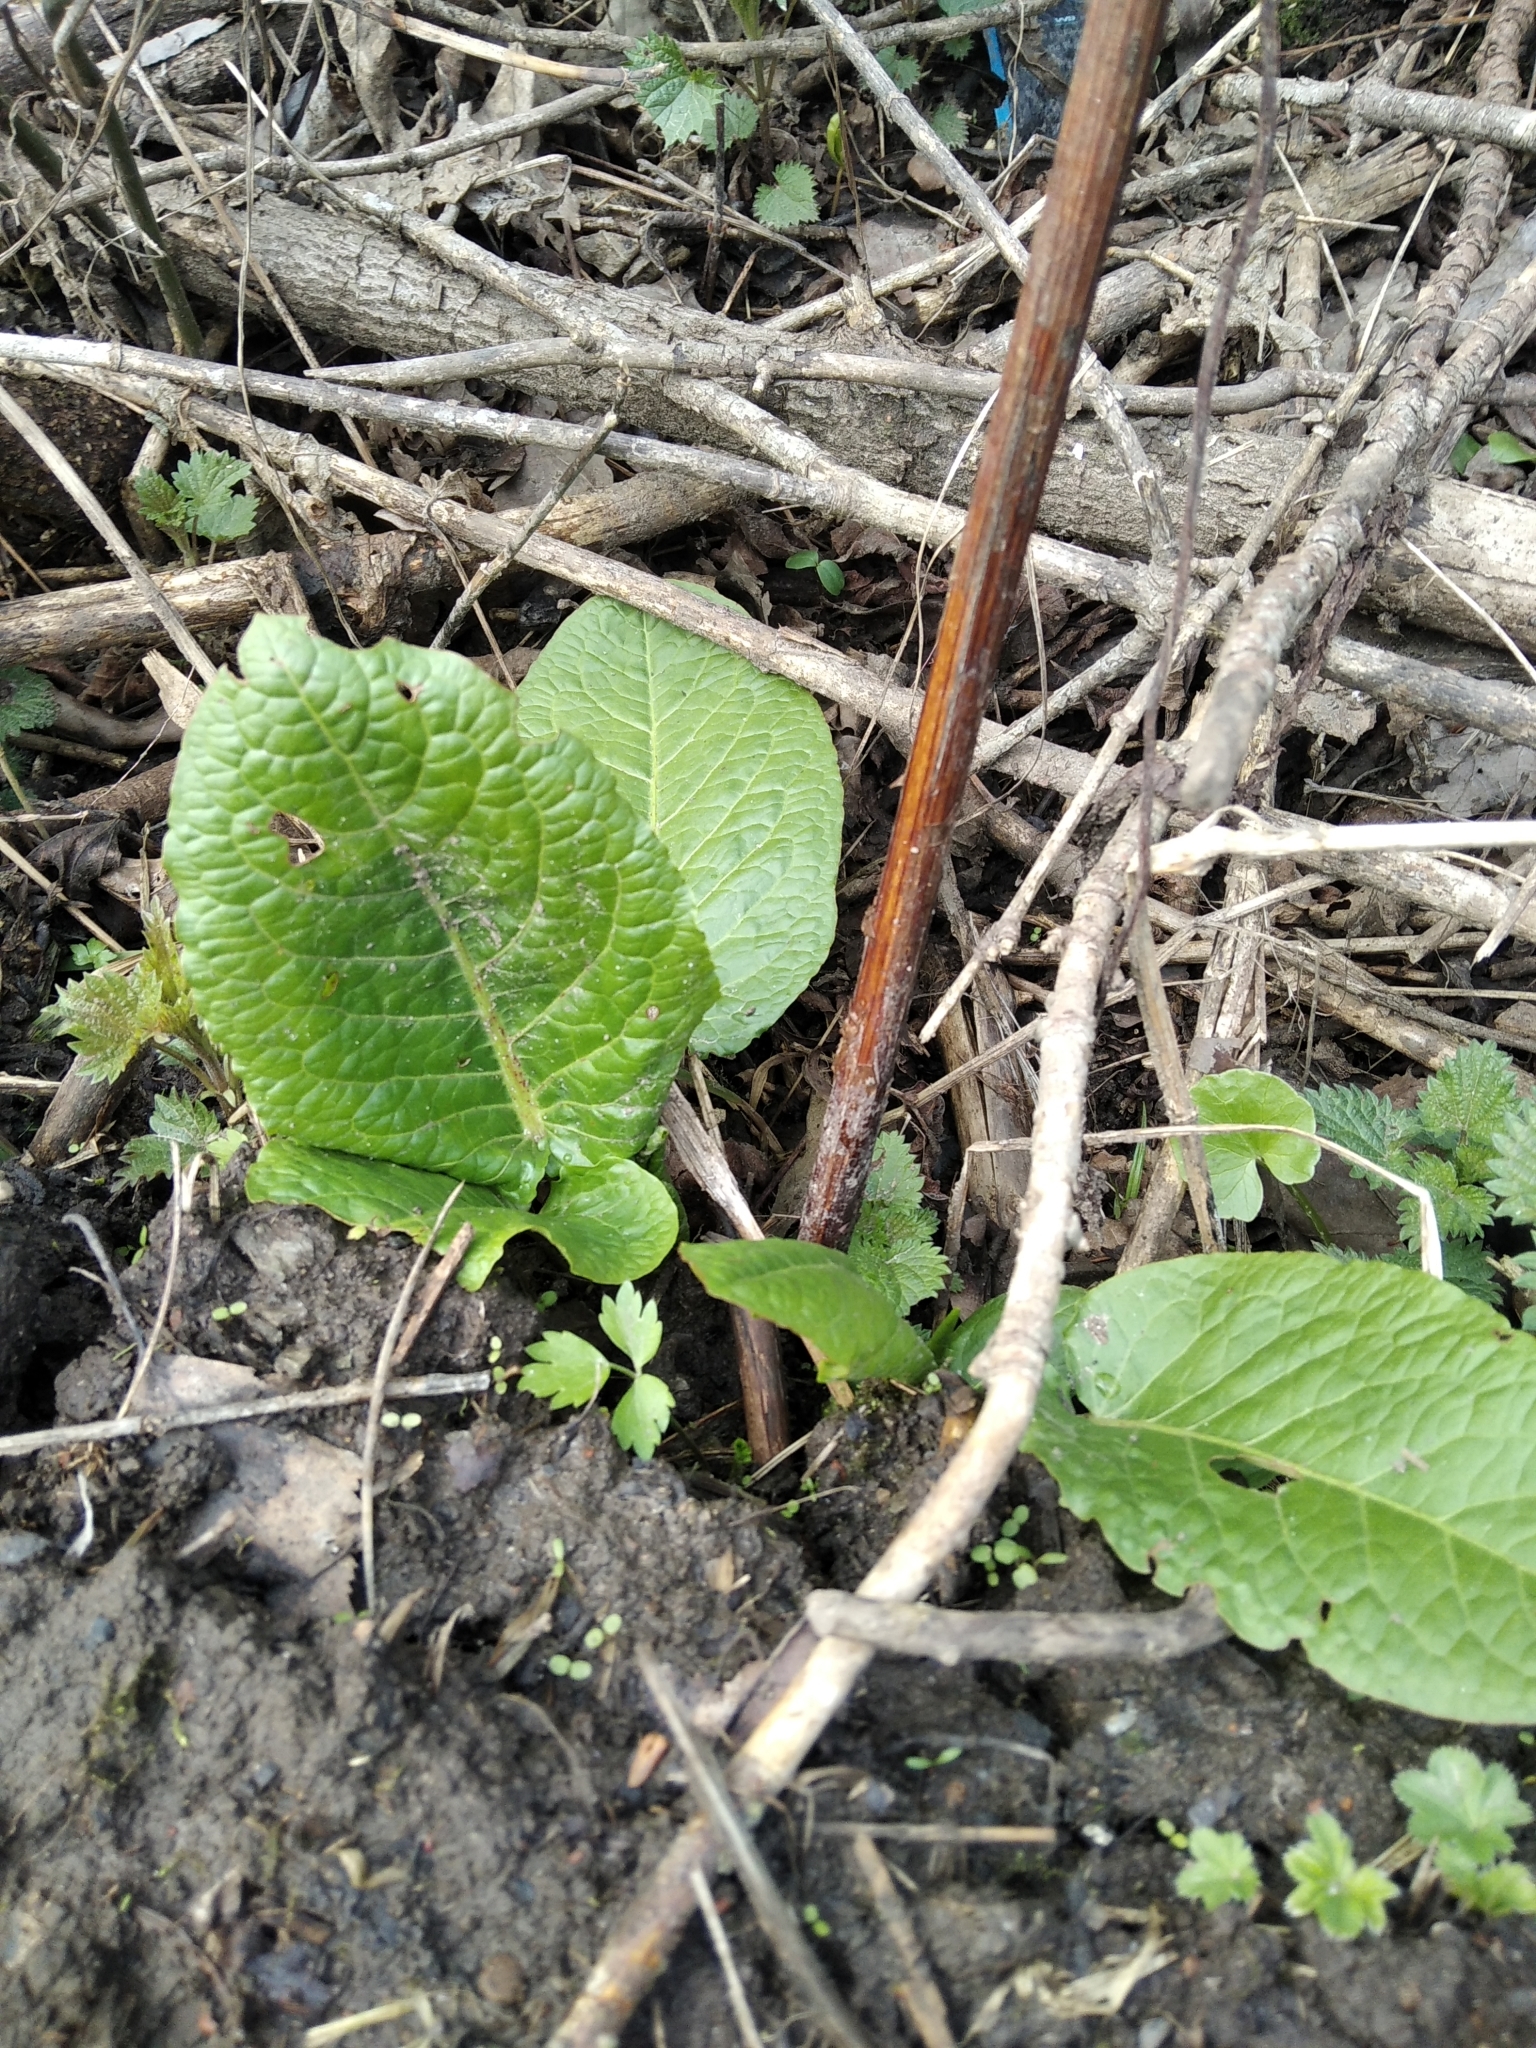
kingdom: Plantae
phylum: Tracheophyta
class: Magnoliopsida
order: Caryophyllales
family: Polygonaceae
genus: Rumex
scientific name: Rumex obtusifolius
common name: Bitter dock
